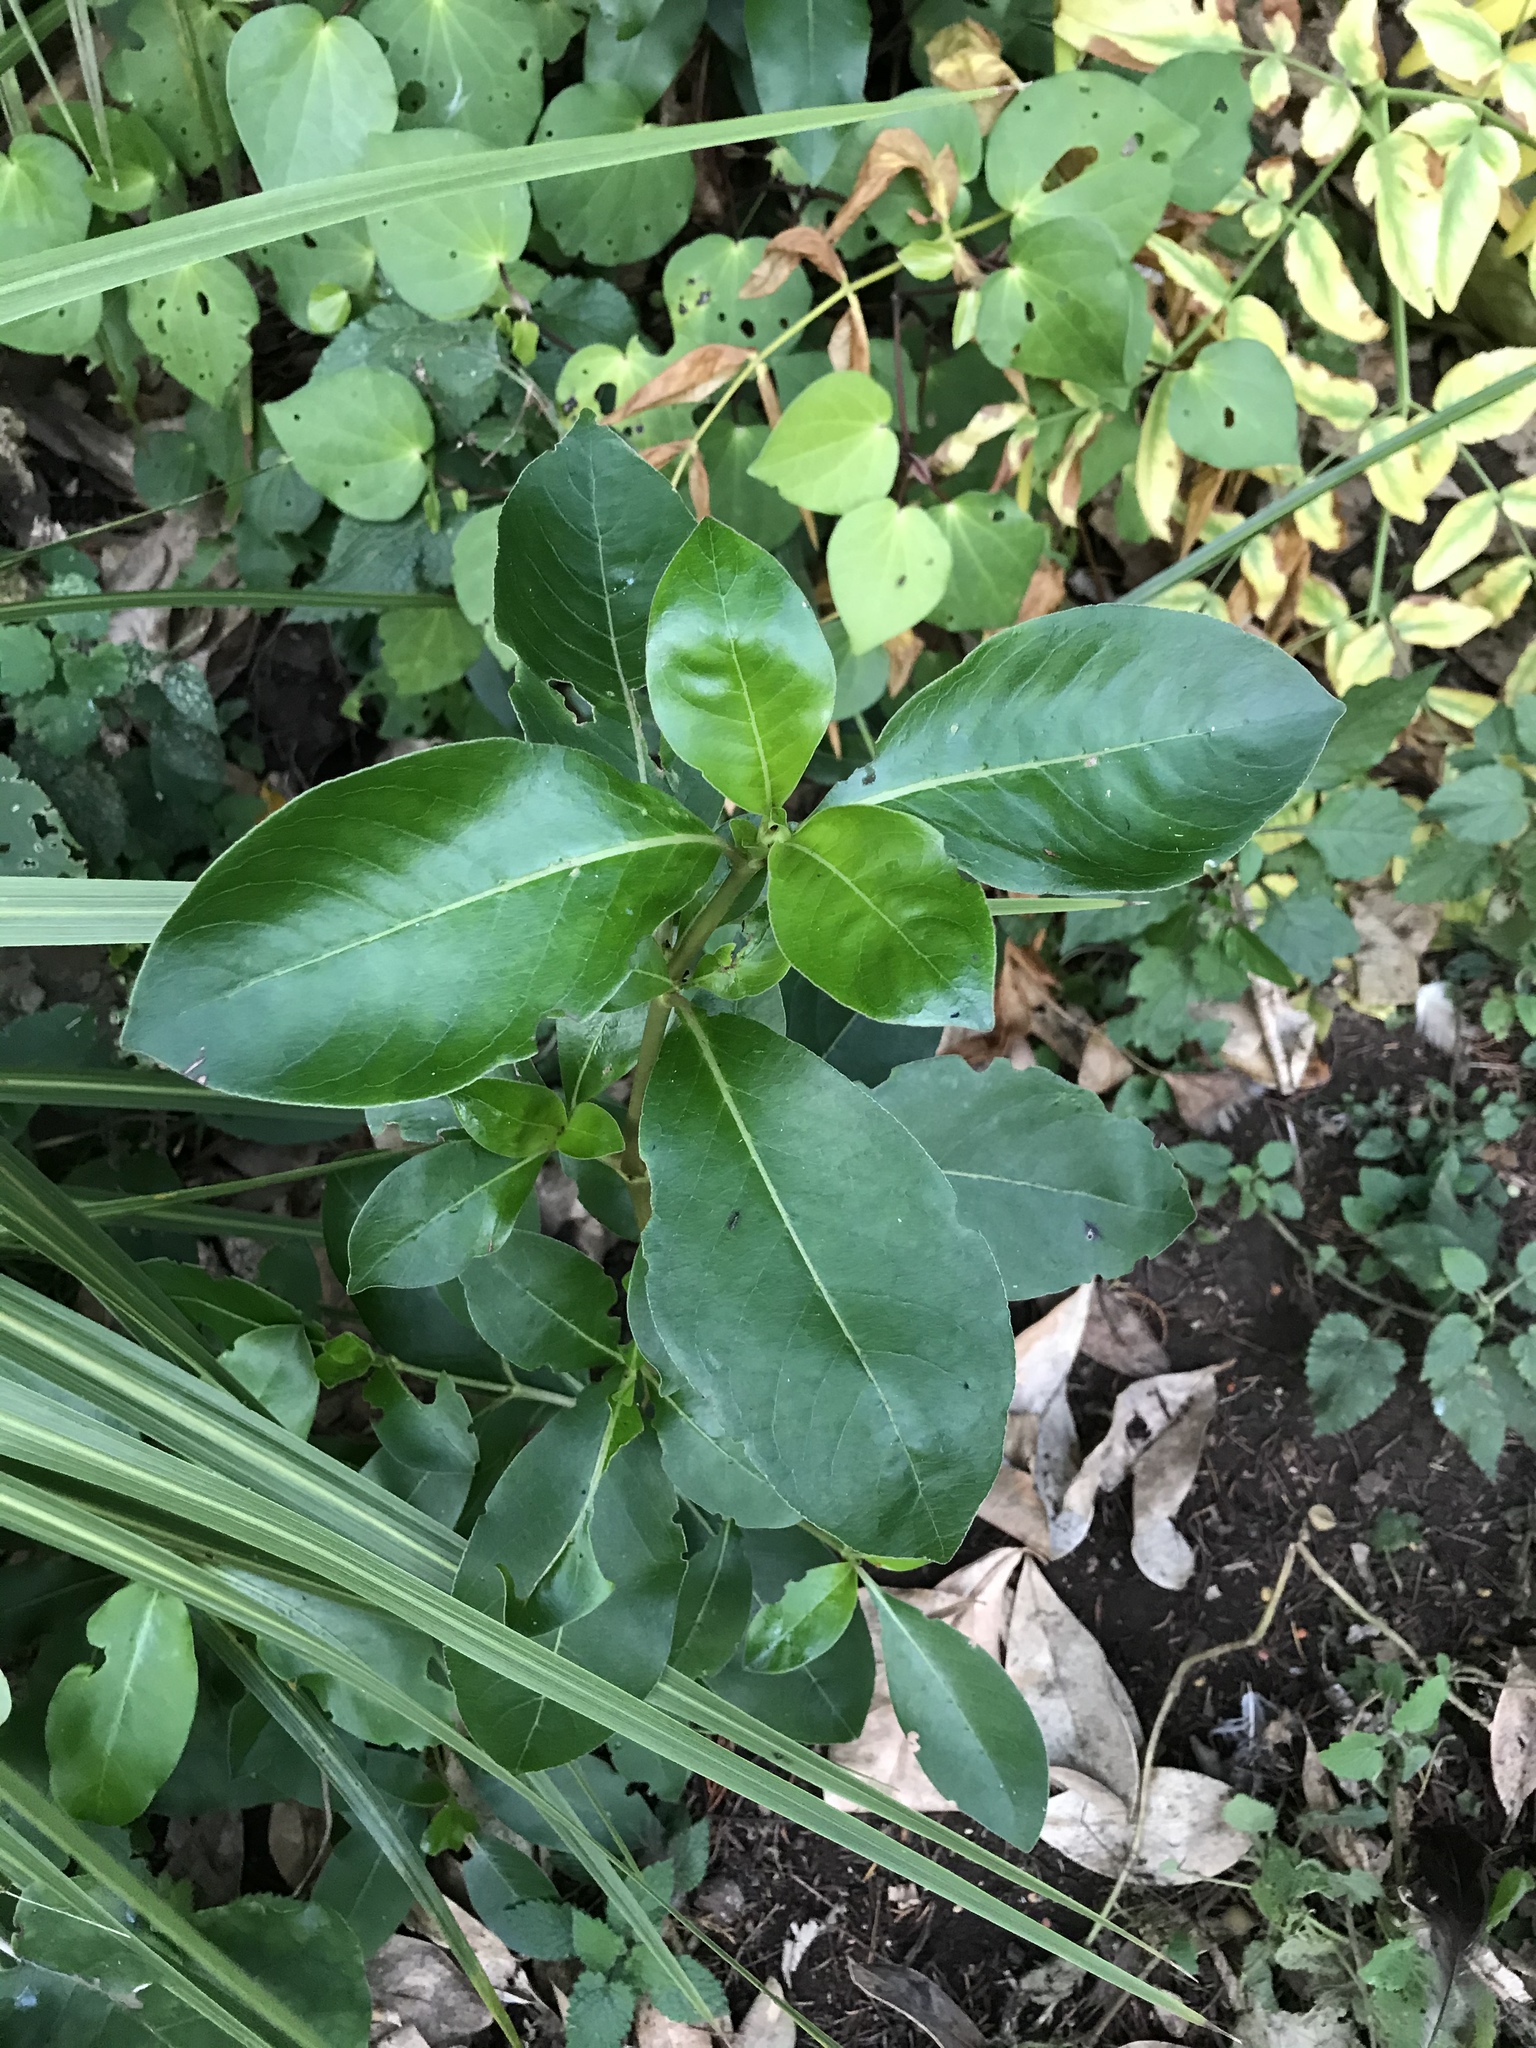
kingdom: Plantae
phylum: Tracheophyta
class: Magnoliopsida
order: Gentianales
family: Rubiaceae
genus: Coprosma
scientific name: Coprosma robusta
